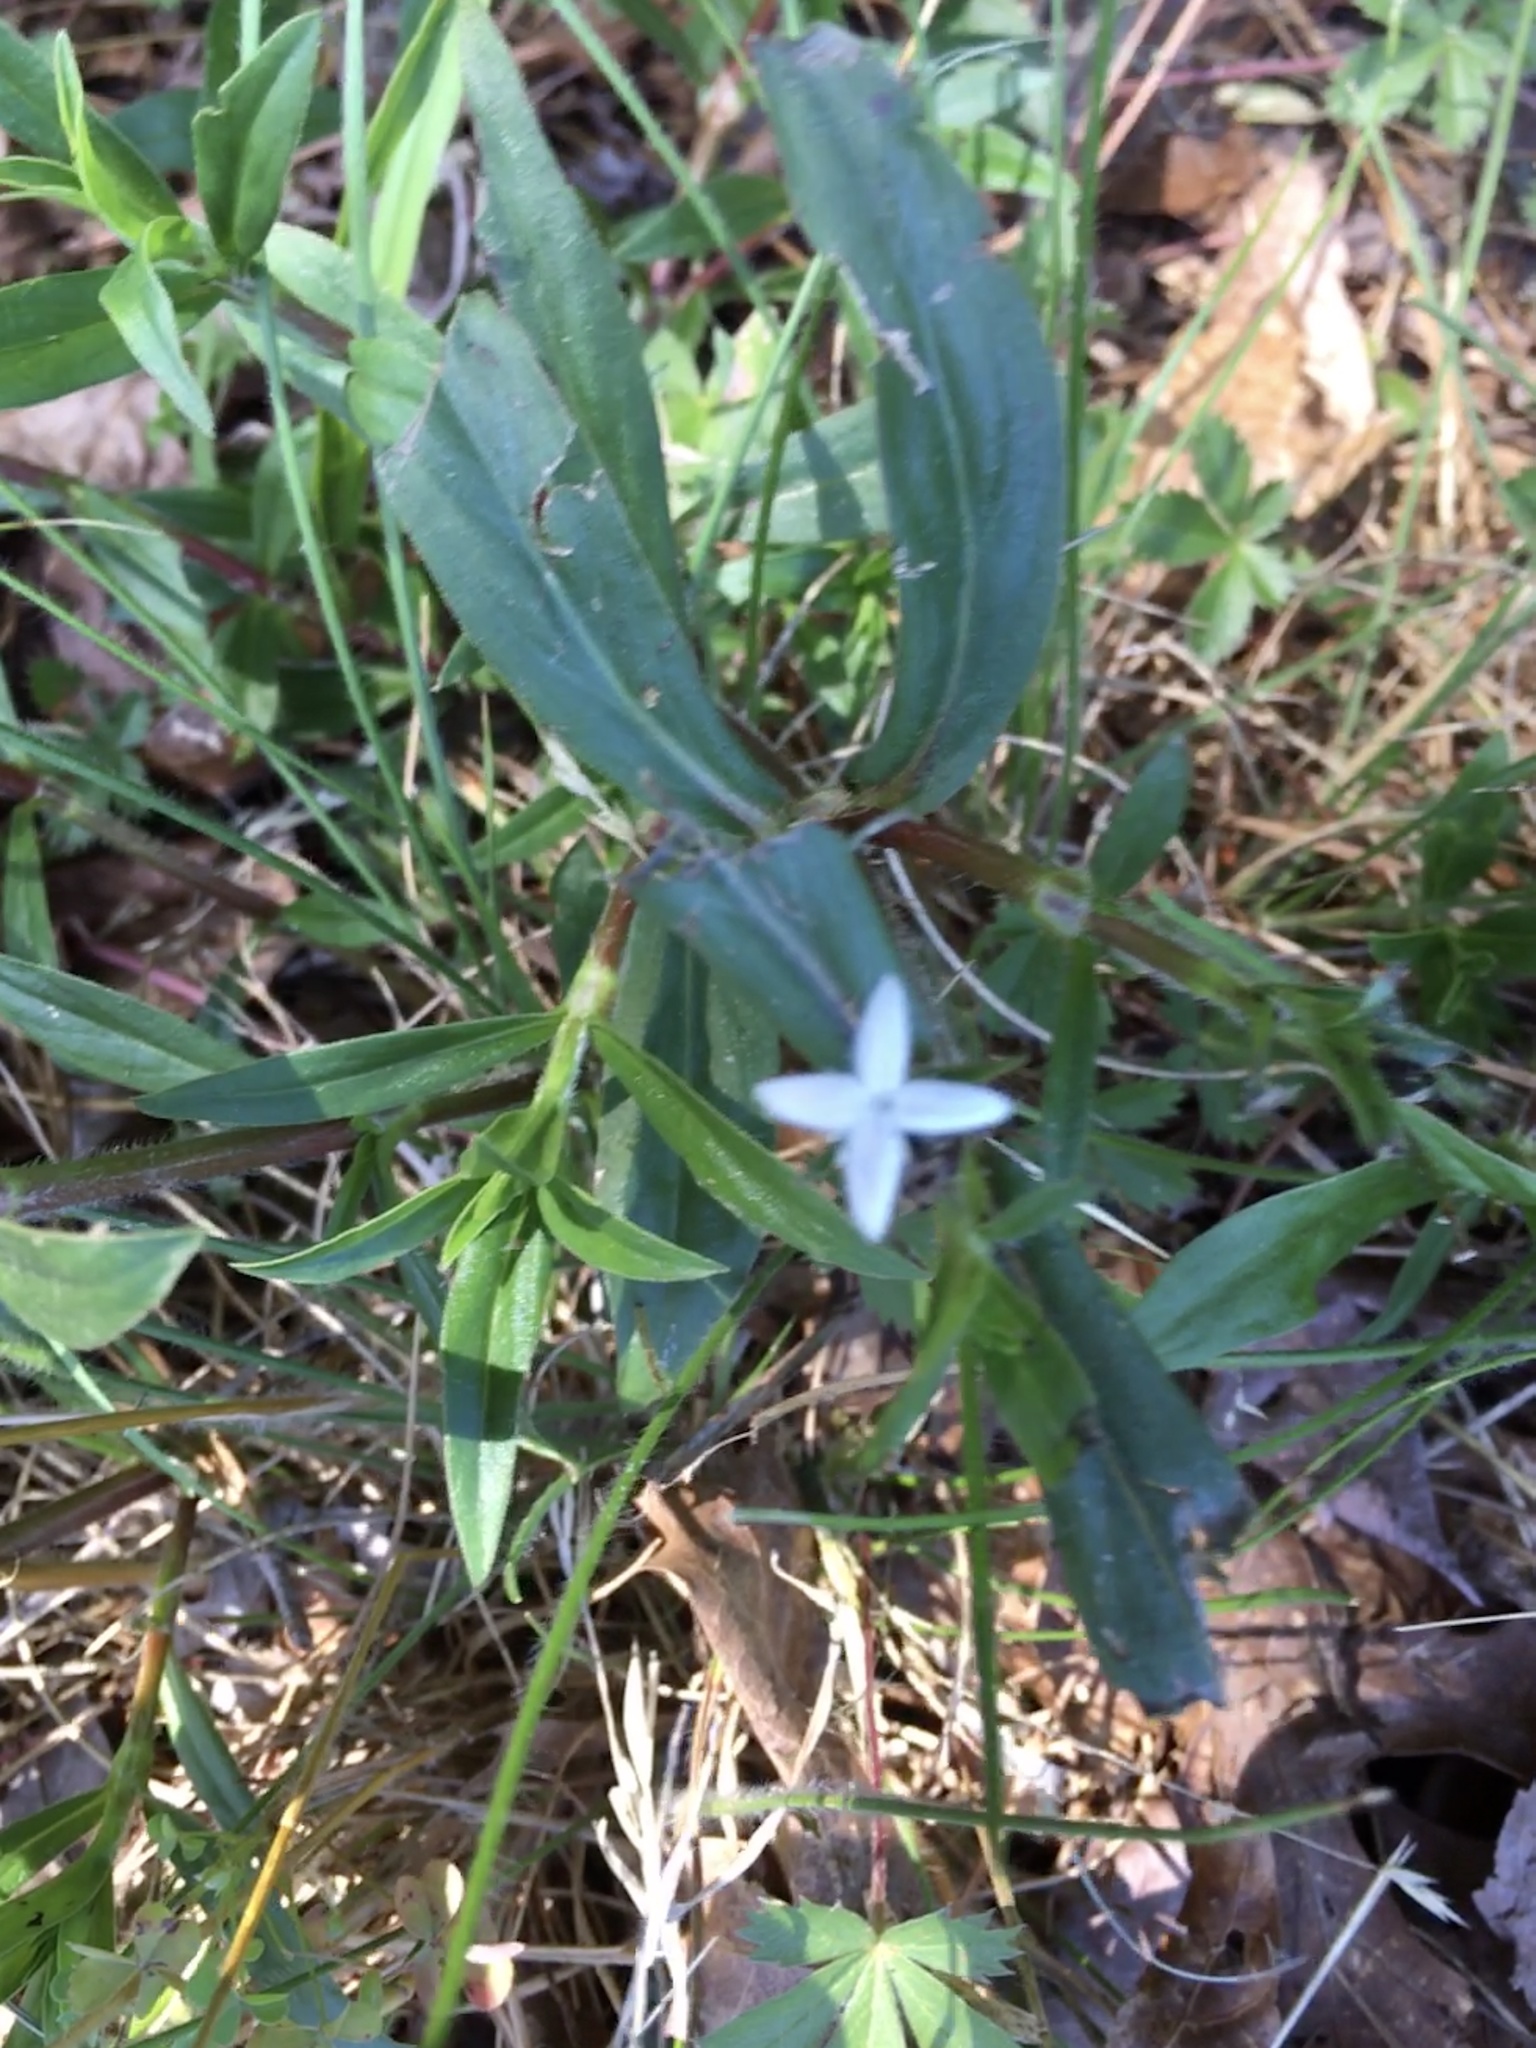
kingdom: Plantae
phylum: Tracheophyta
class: Magnoliopsida
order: Gentianales
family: Rubiaceae
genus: Diodia
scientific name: Diodia virginiana
